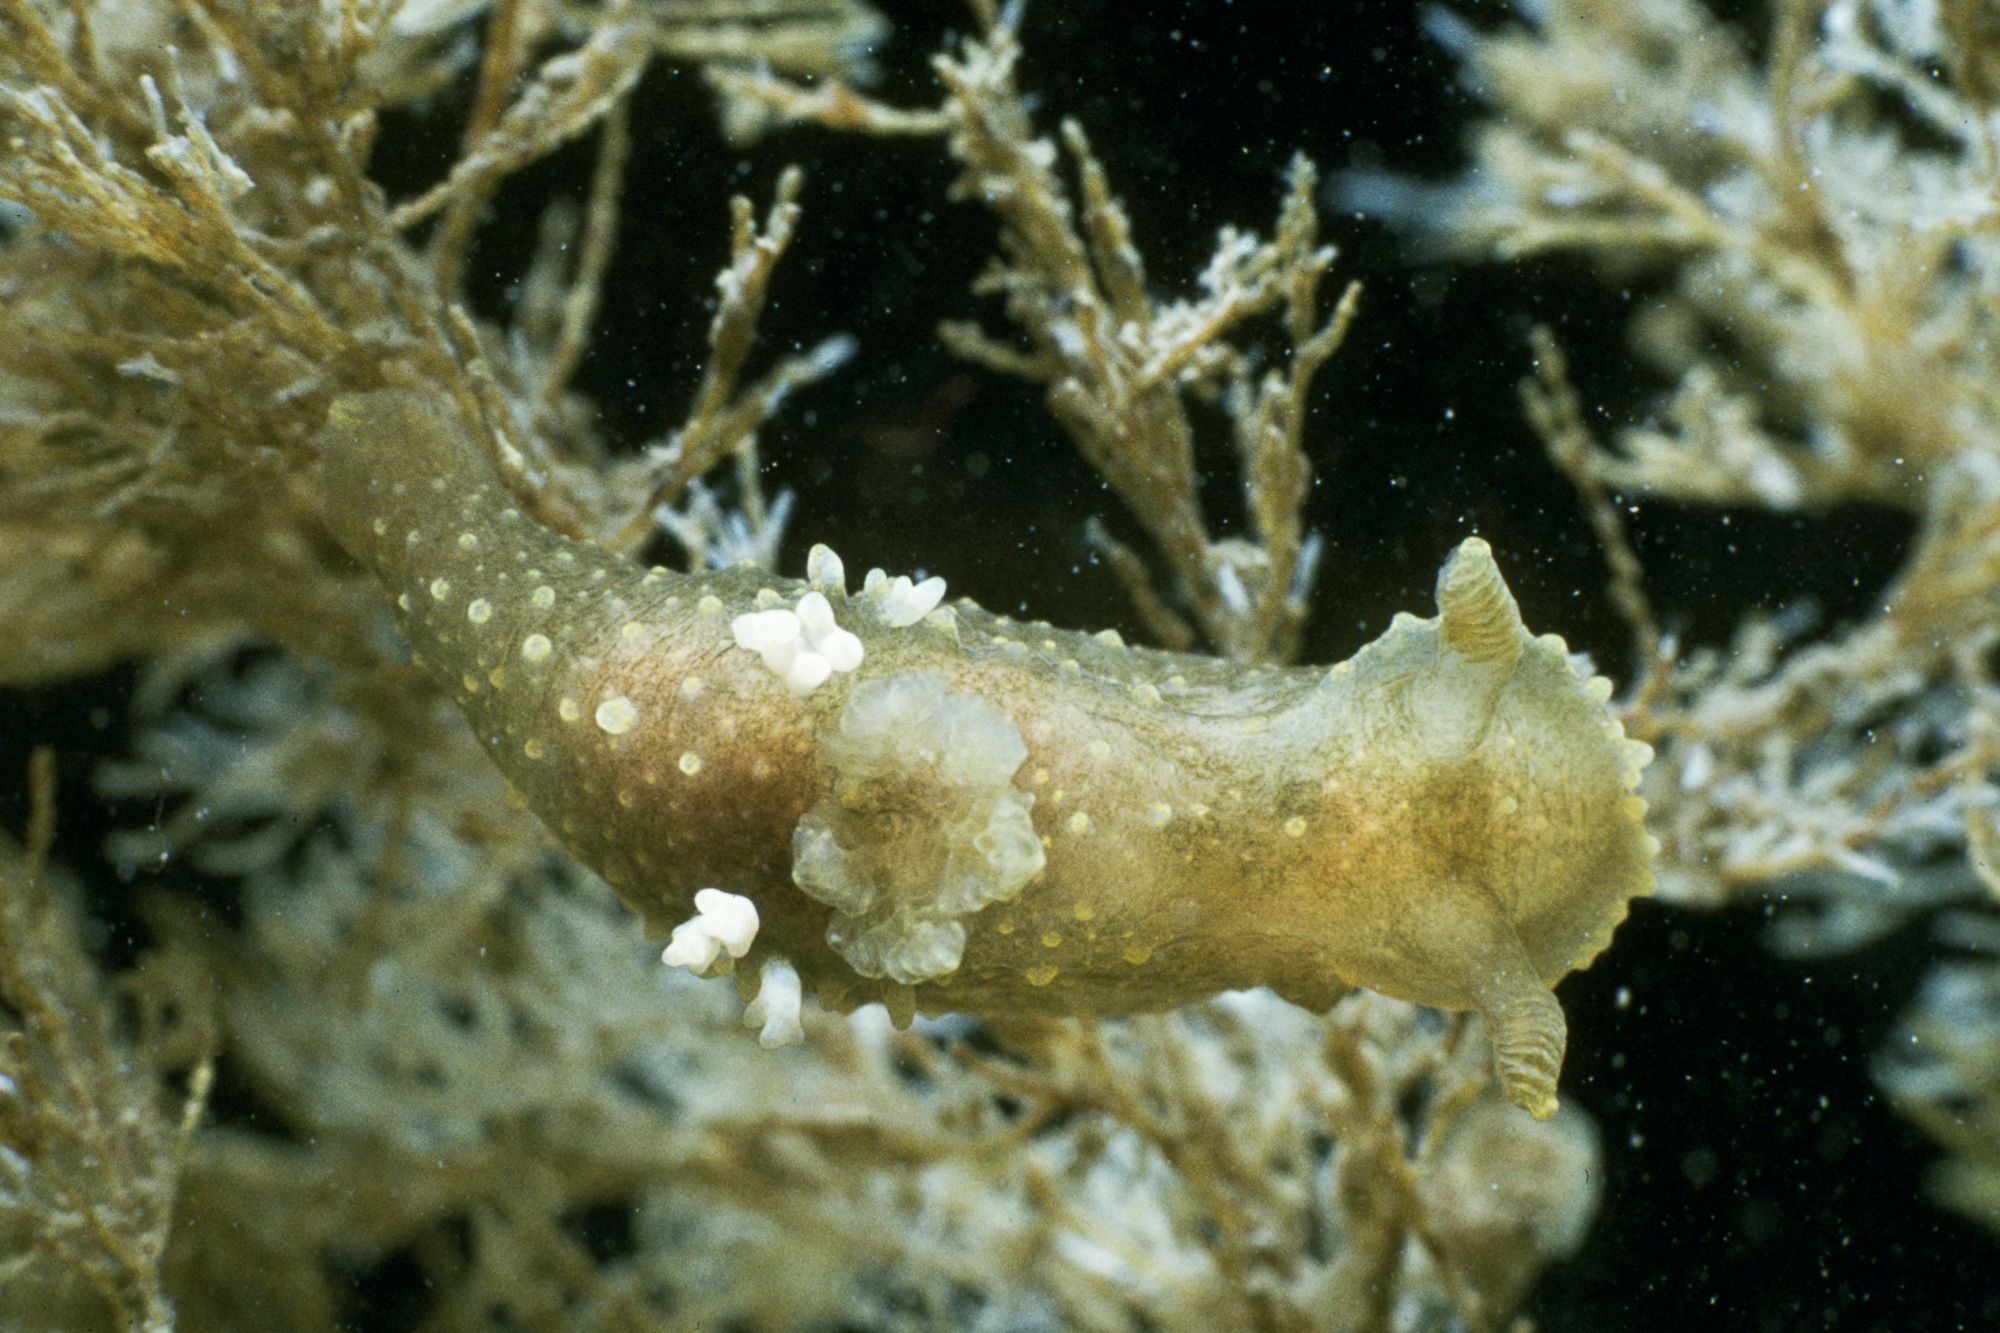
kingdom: Animalia
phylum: Mollusca
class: Gastropoda
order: Nudibranchia
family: Polyceridae
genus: Palio
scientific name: Palio dubia
